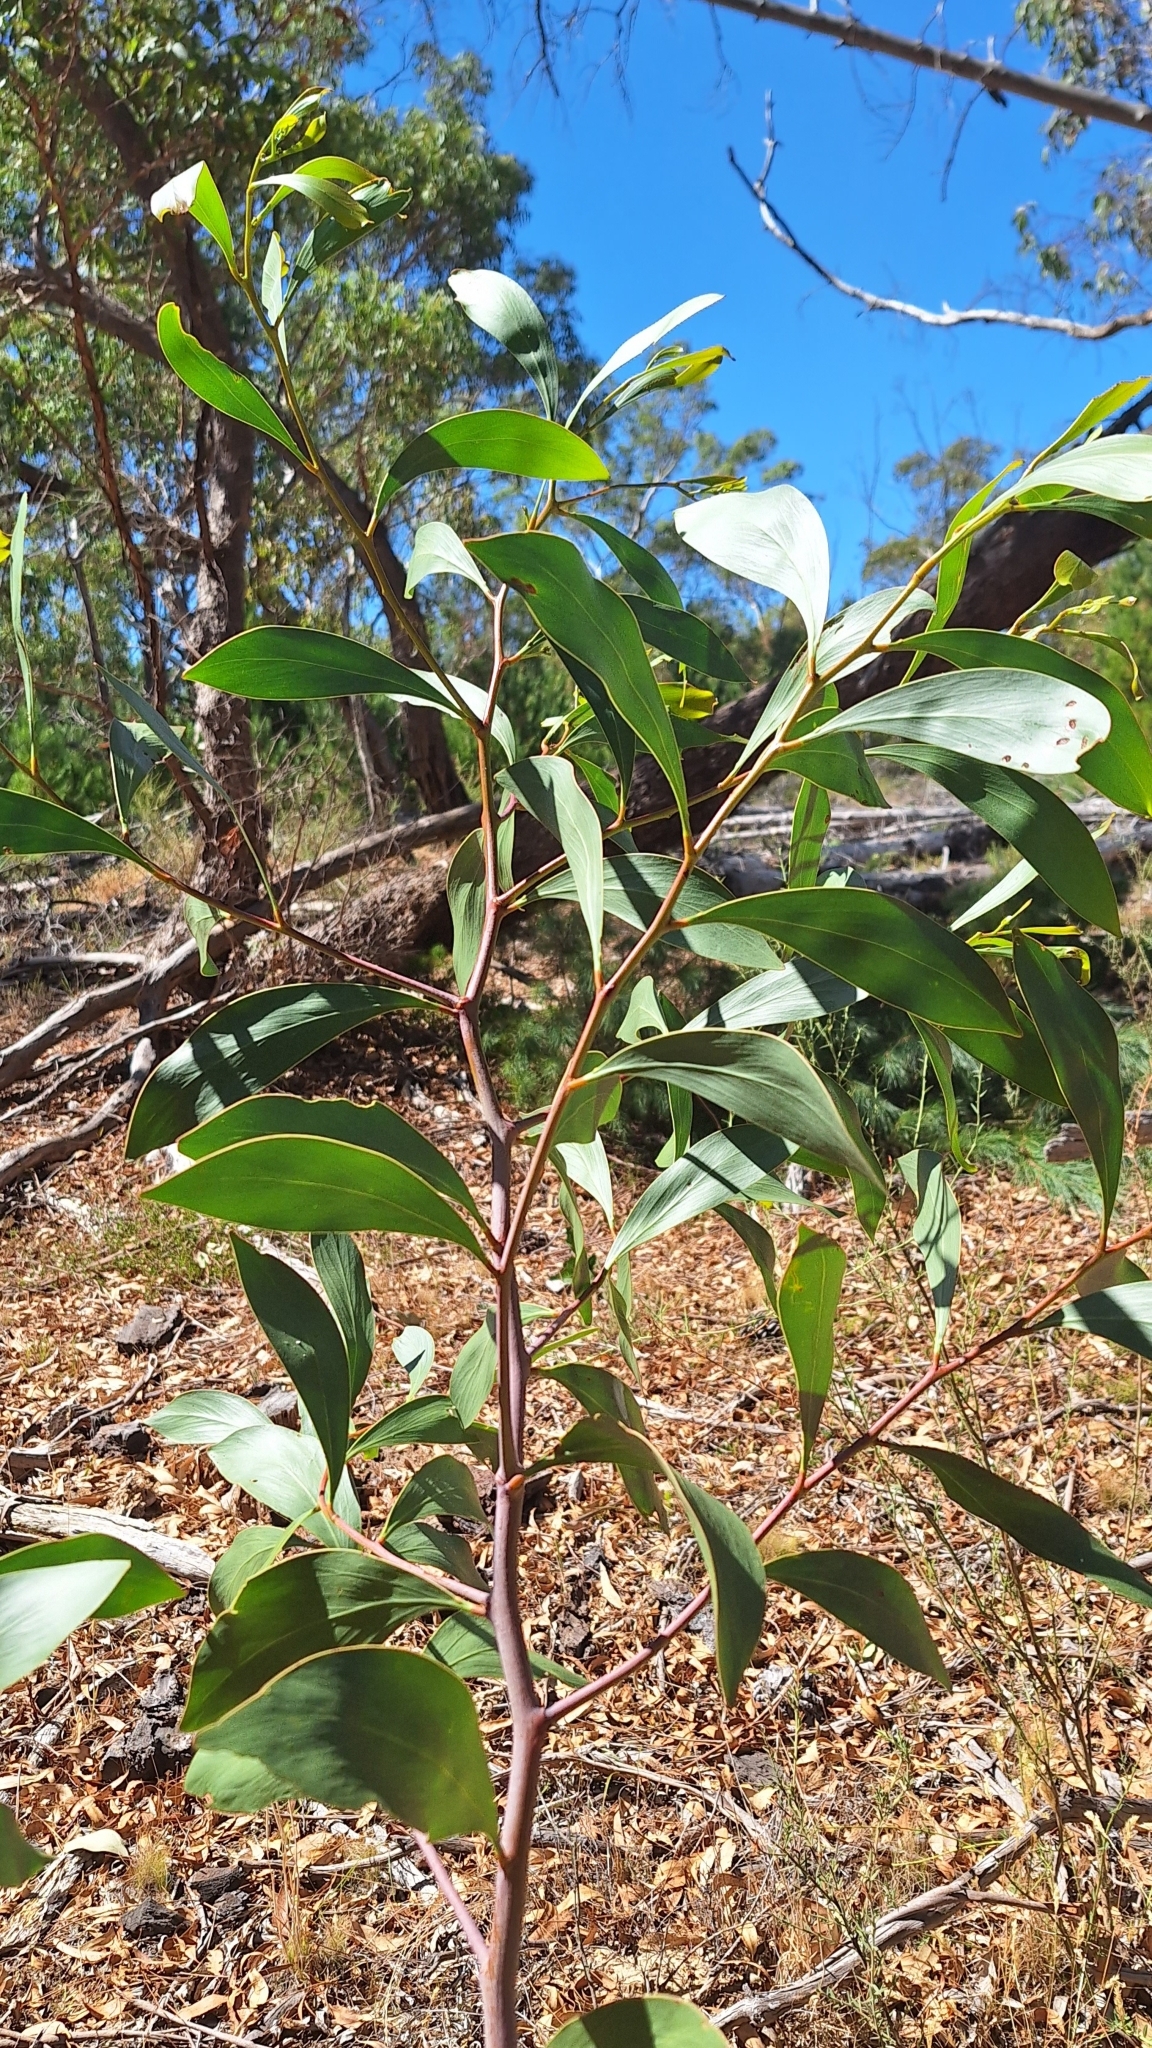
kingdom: Plantae
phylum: Tracheophyta
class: Magnoliopsida
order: Fabales
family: Fabaceae
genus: Acacia
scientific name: Acacia pycnantha
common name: Golden wattle
